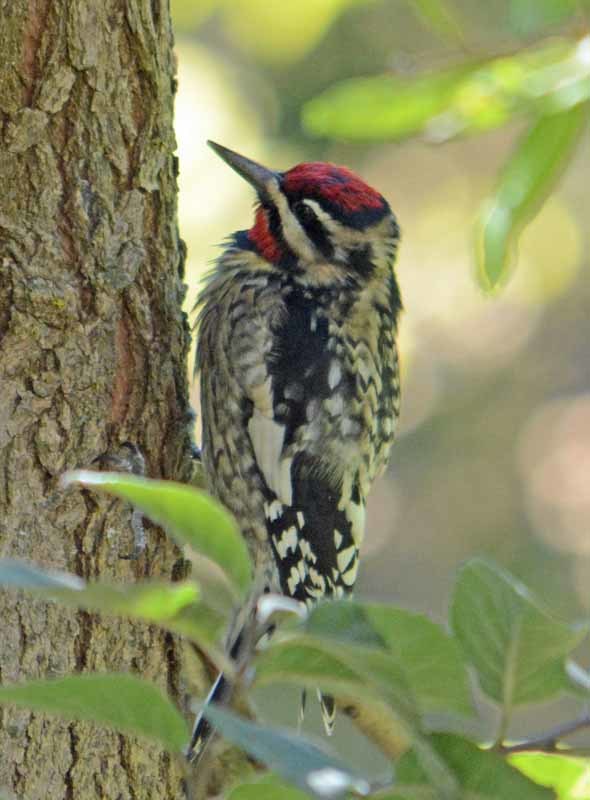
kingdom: Animalia
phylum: Chordata
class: Aves
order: Piciformes
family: Picidae
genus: Sphyrapicus
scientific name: Sphyrapicus varius
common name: Yellow-bellied sapsucker
